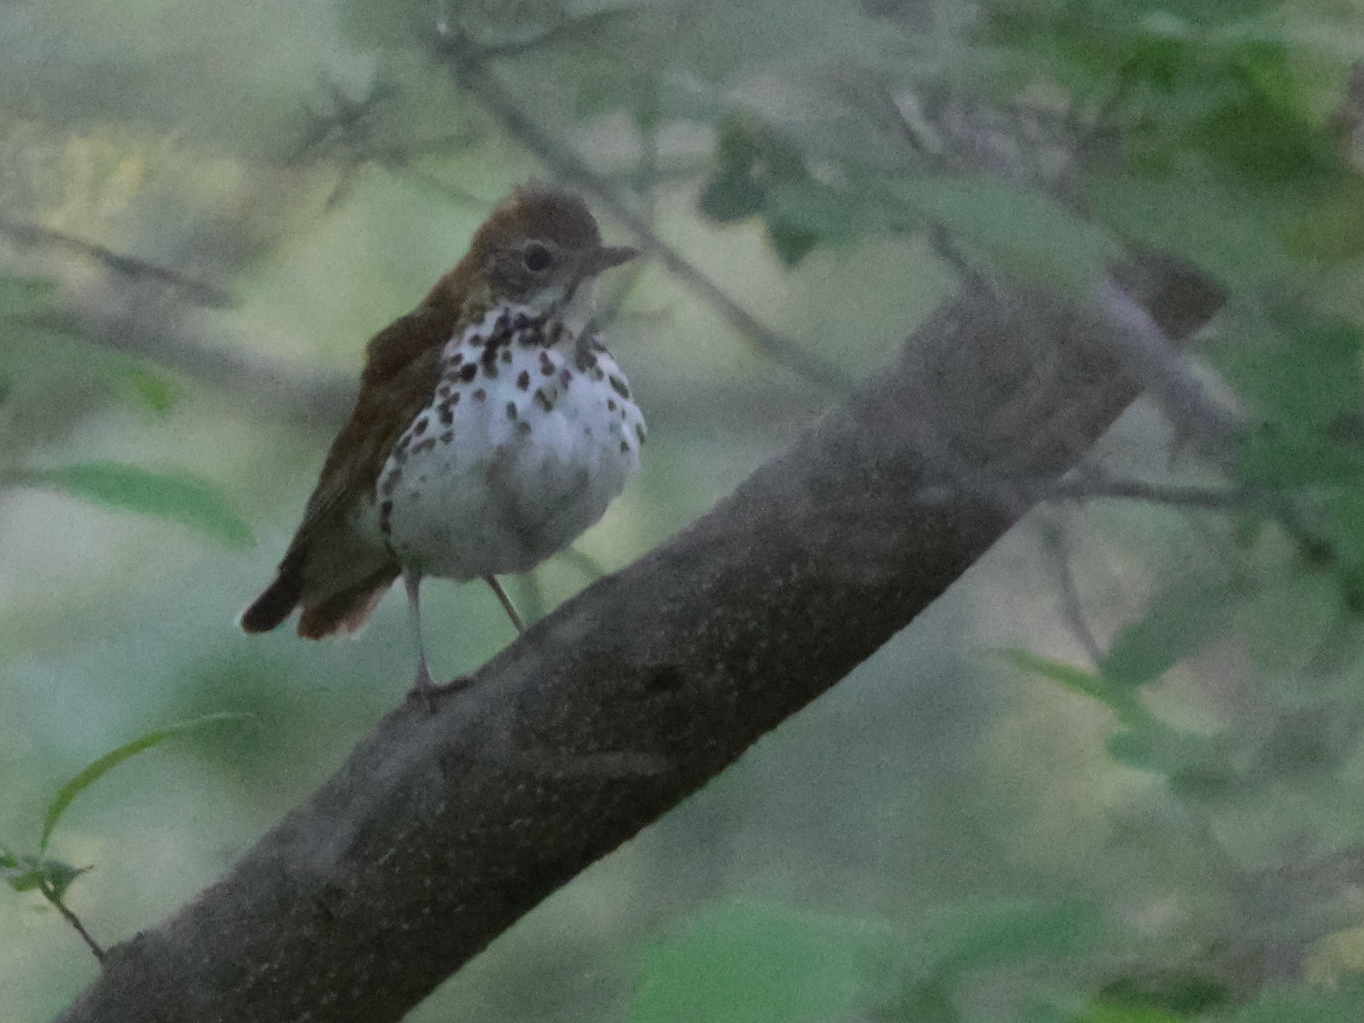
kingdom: Animalia
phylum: Chordata
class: Aves
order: Passeriformes
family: Turdidae
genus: Hylocichla
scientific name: Hylocichla mustelina
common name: Wood thrush
